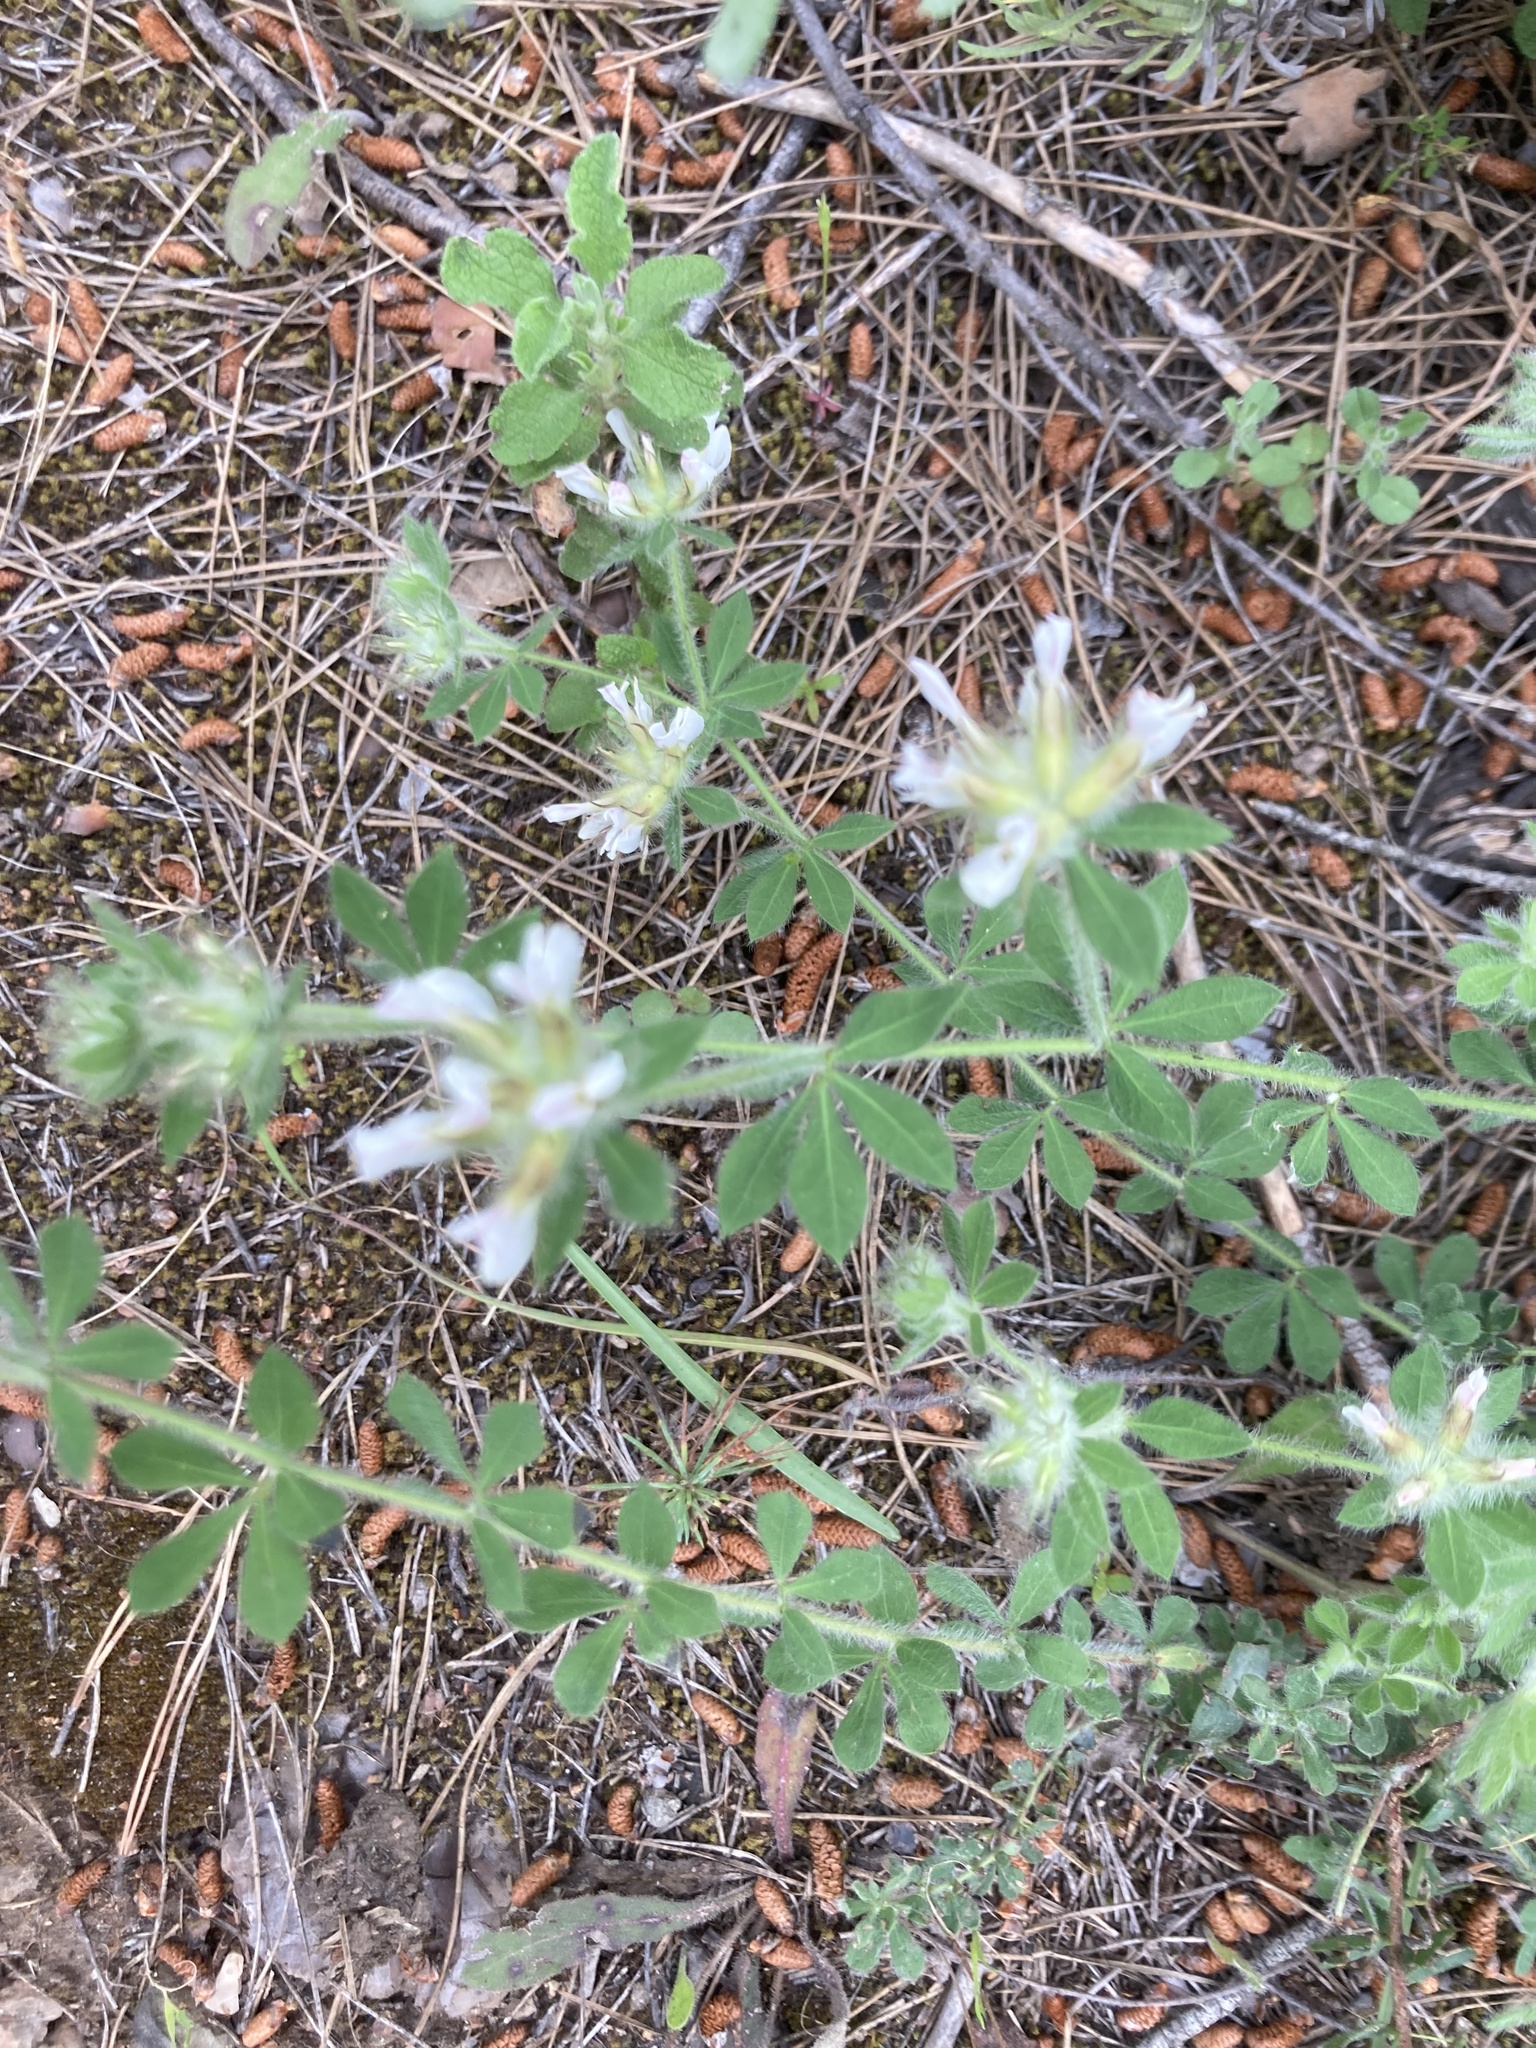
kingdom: Plantae
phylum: Tracheophyta
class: Magnoliopsida
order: Fabales
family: Fabaceae
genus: Lotus
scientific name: Lotus hirsutus
